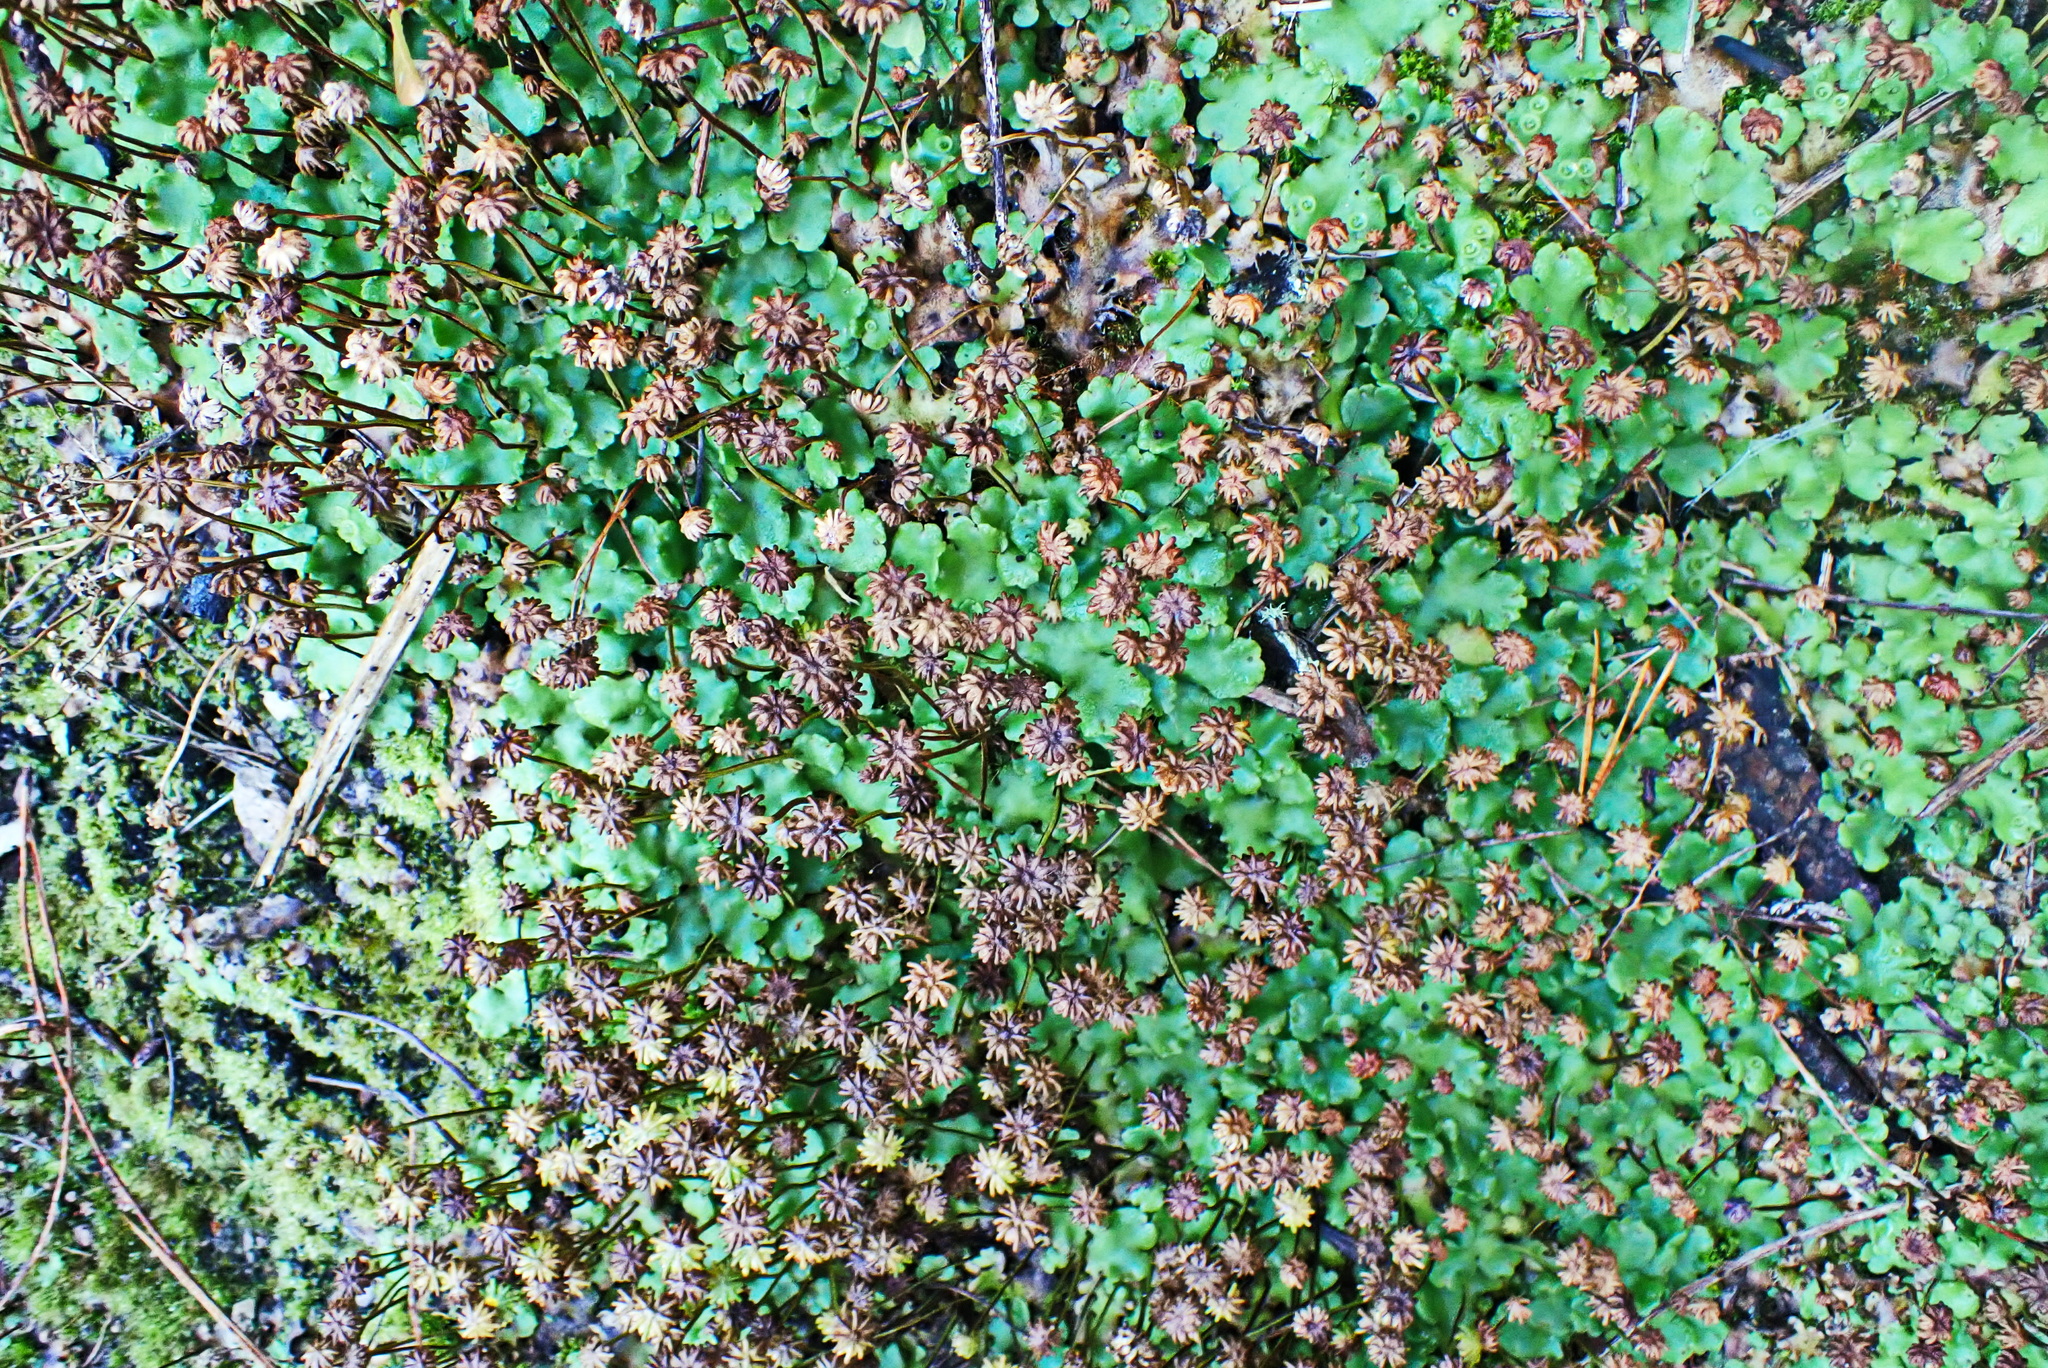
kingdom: Plantae
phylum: Marchantiophyta
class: Marchantiopsida
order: Marchantiales
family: Marchantiaceae
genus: Marchantia
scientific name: Marchantia berteroana
